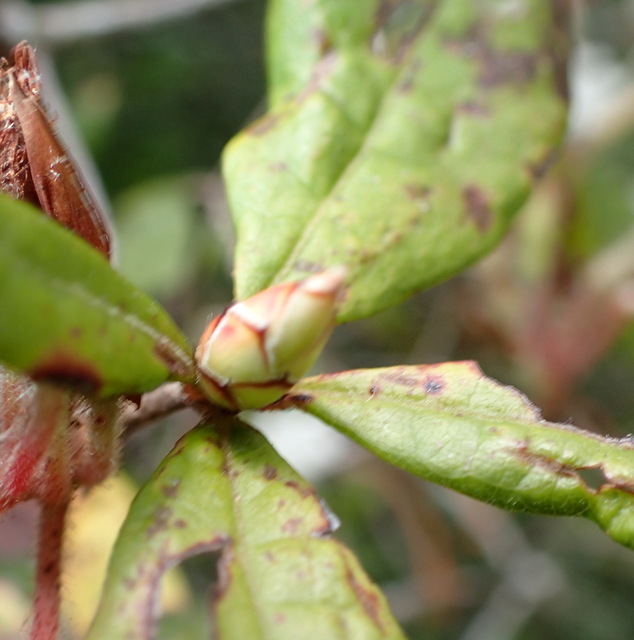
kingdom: Plantae
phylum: Tracheophyta
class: Magnoliopsida
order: Ericales
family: Ericaceae
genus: Rhododendron
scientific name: Rhododendron serrulatum
